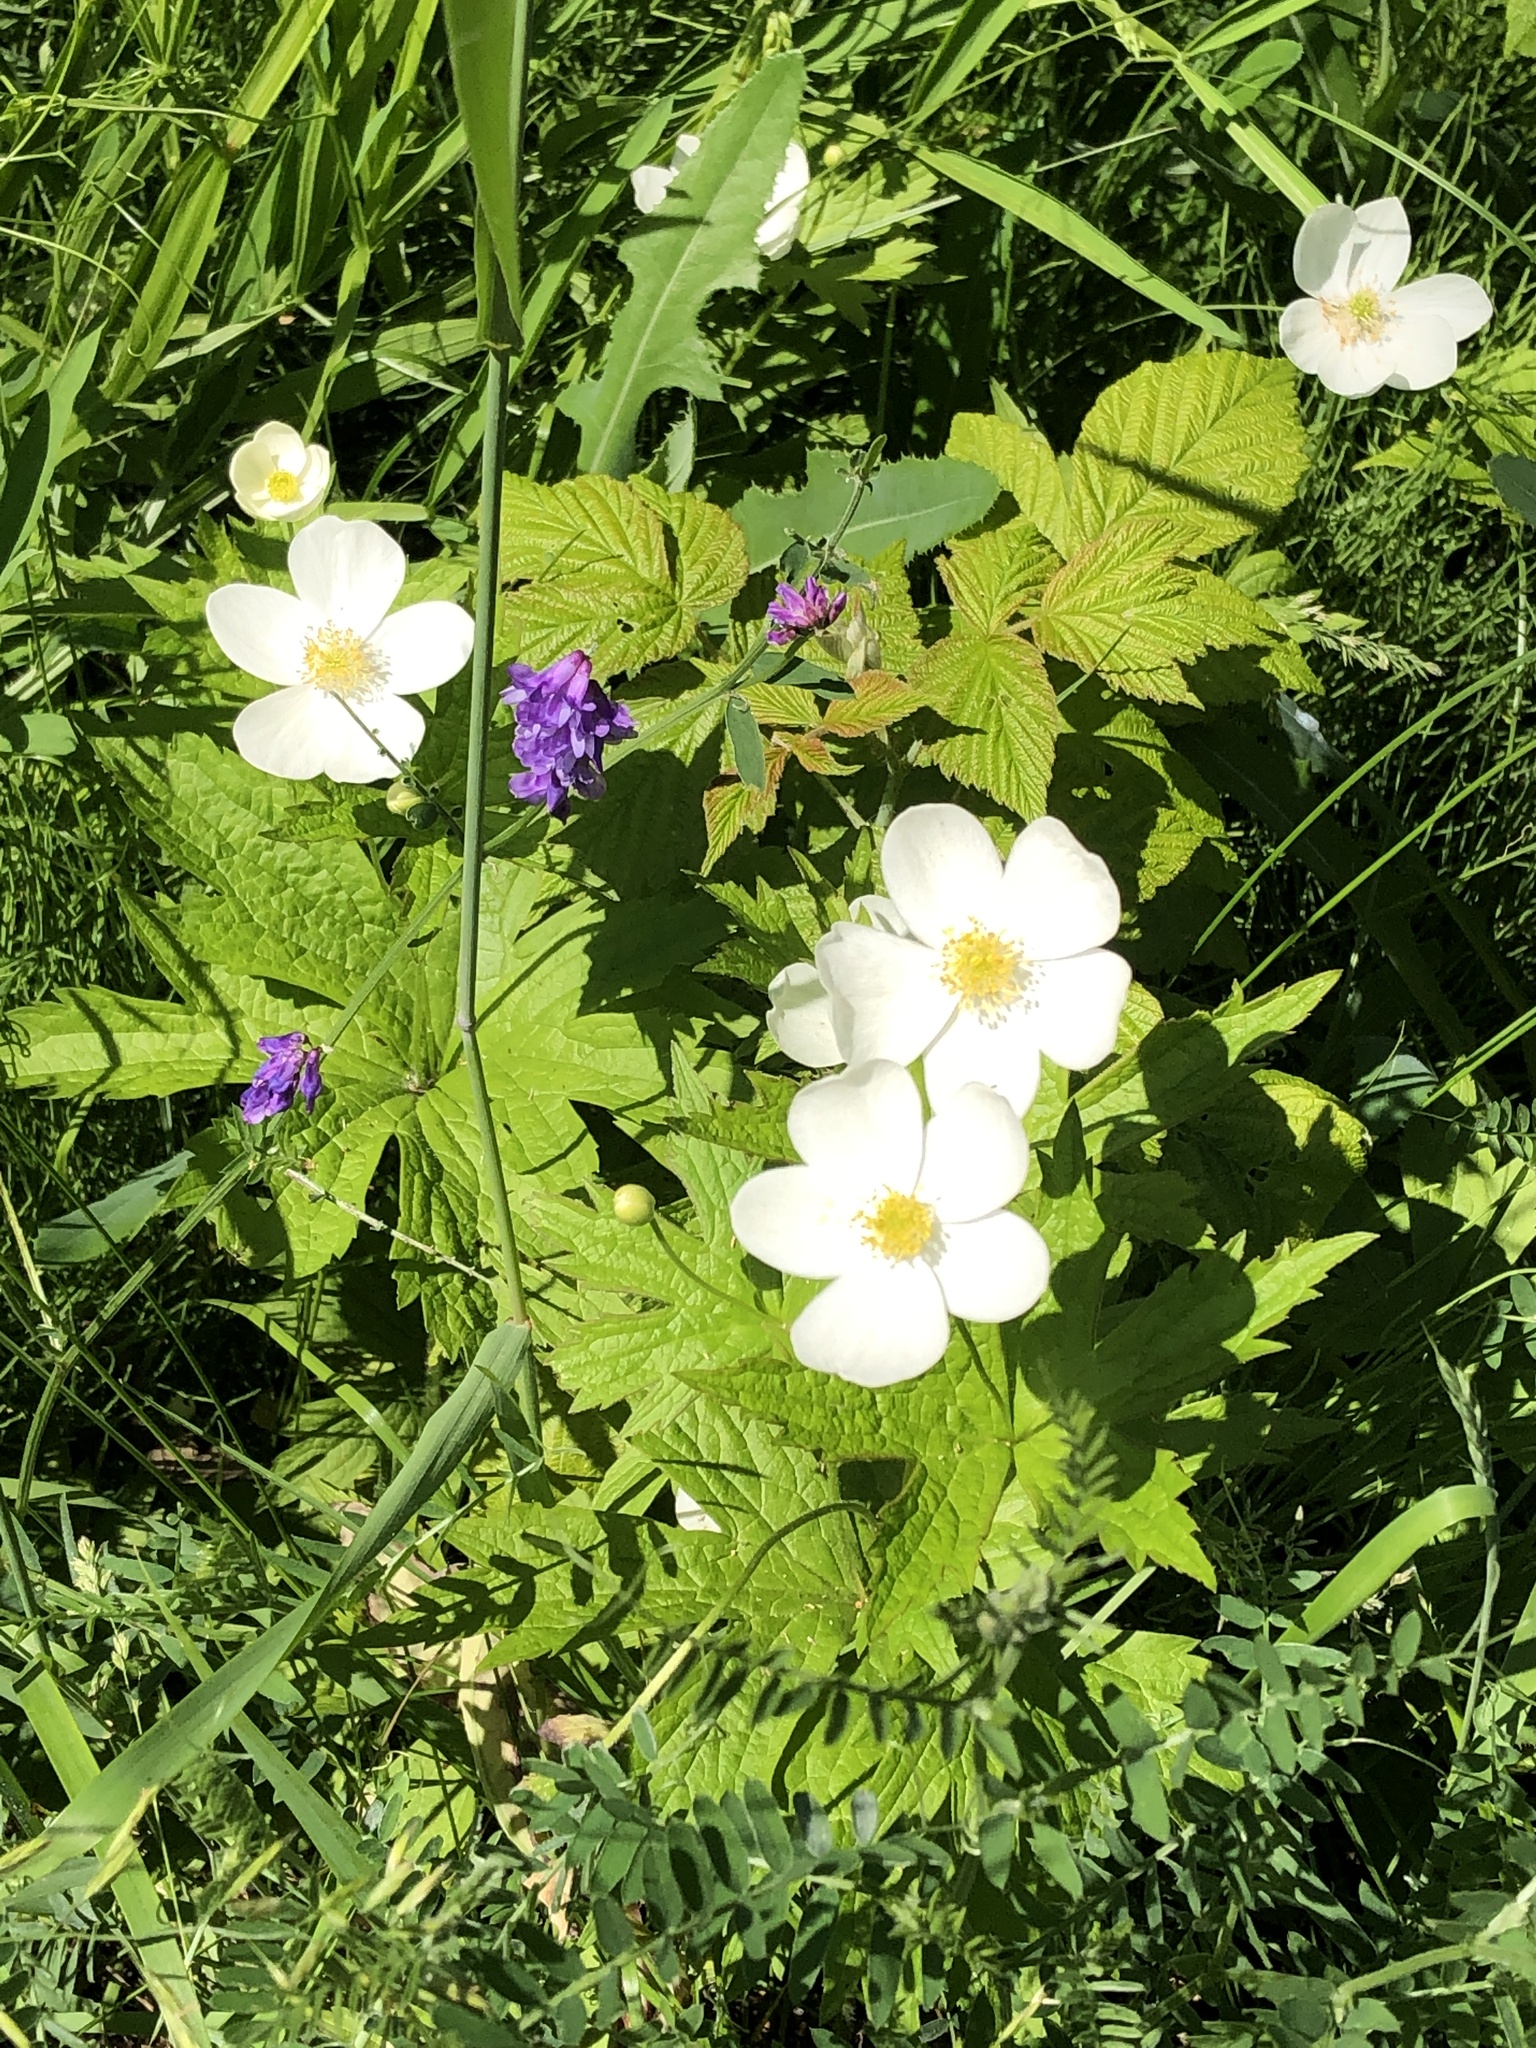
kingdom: Plantae
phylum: Tracheophyta
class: Magnoliopsida
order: Ranunculales
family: Ranunculaceae
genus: Anemonastrum
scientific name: Anemonastrum canadense
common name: Canada anemone
